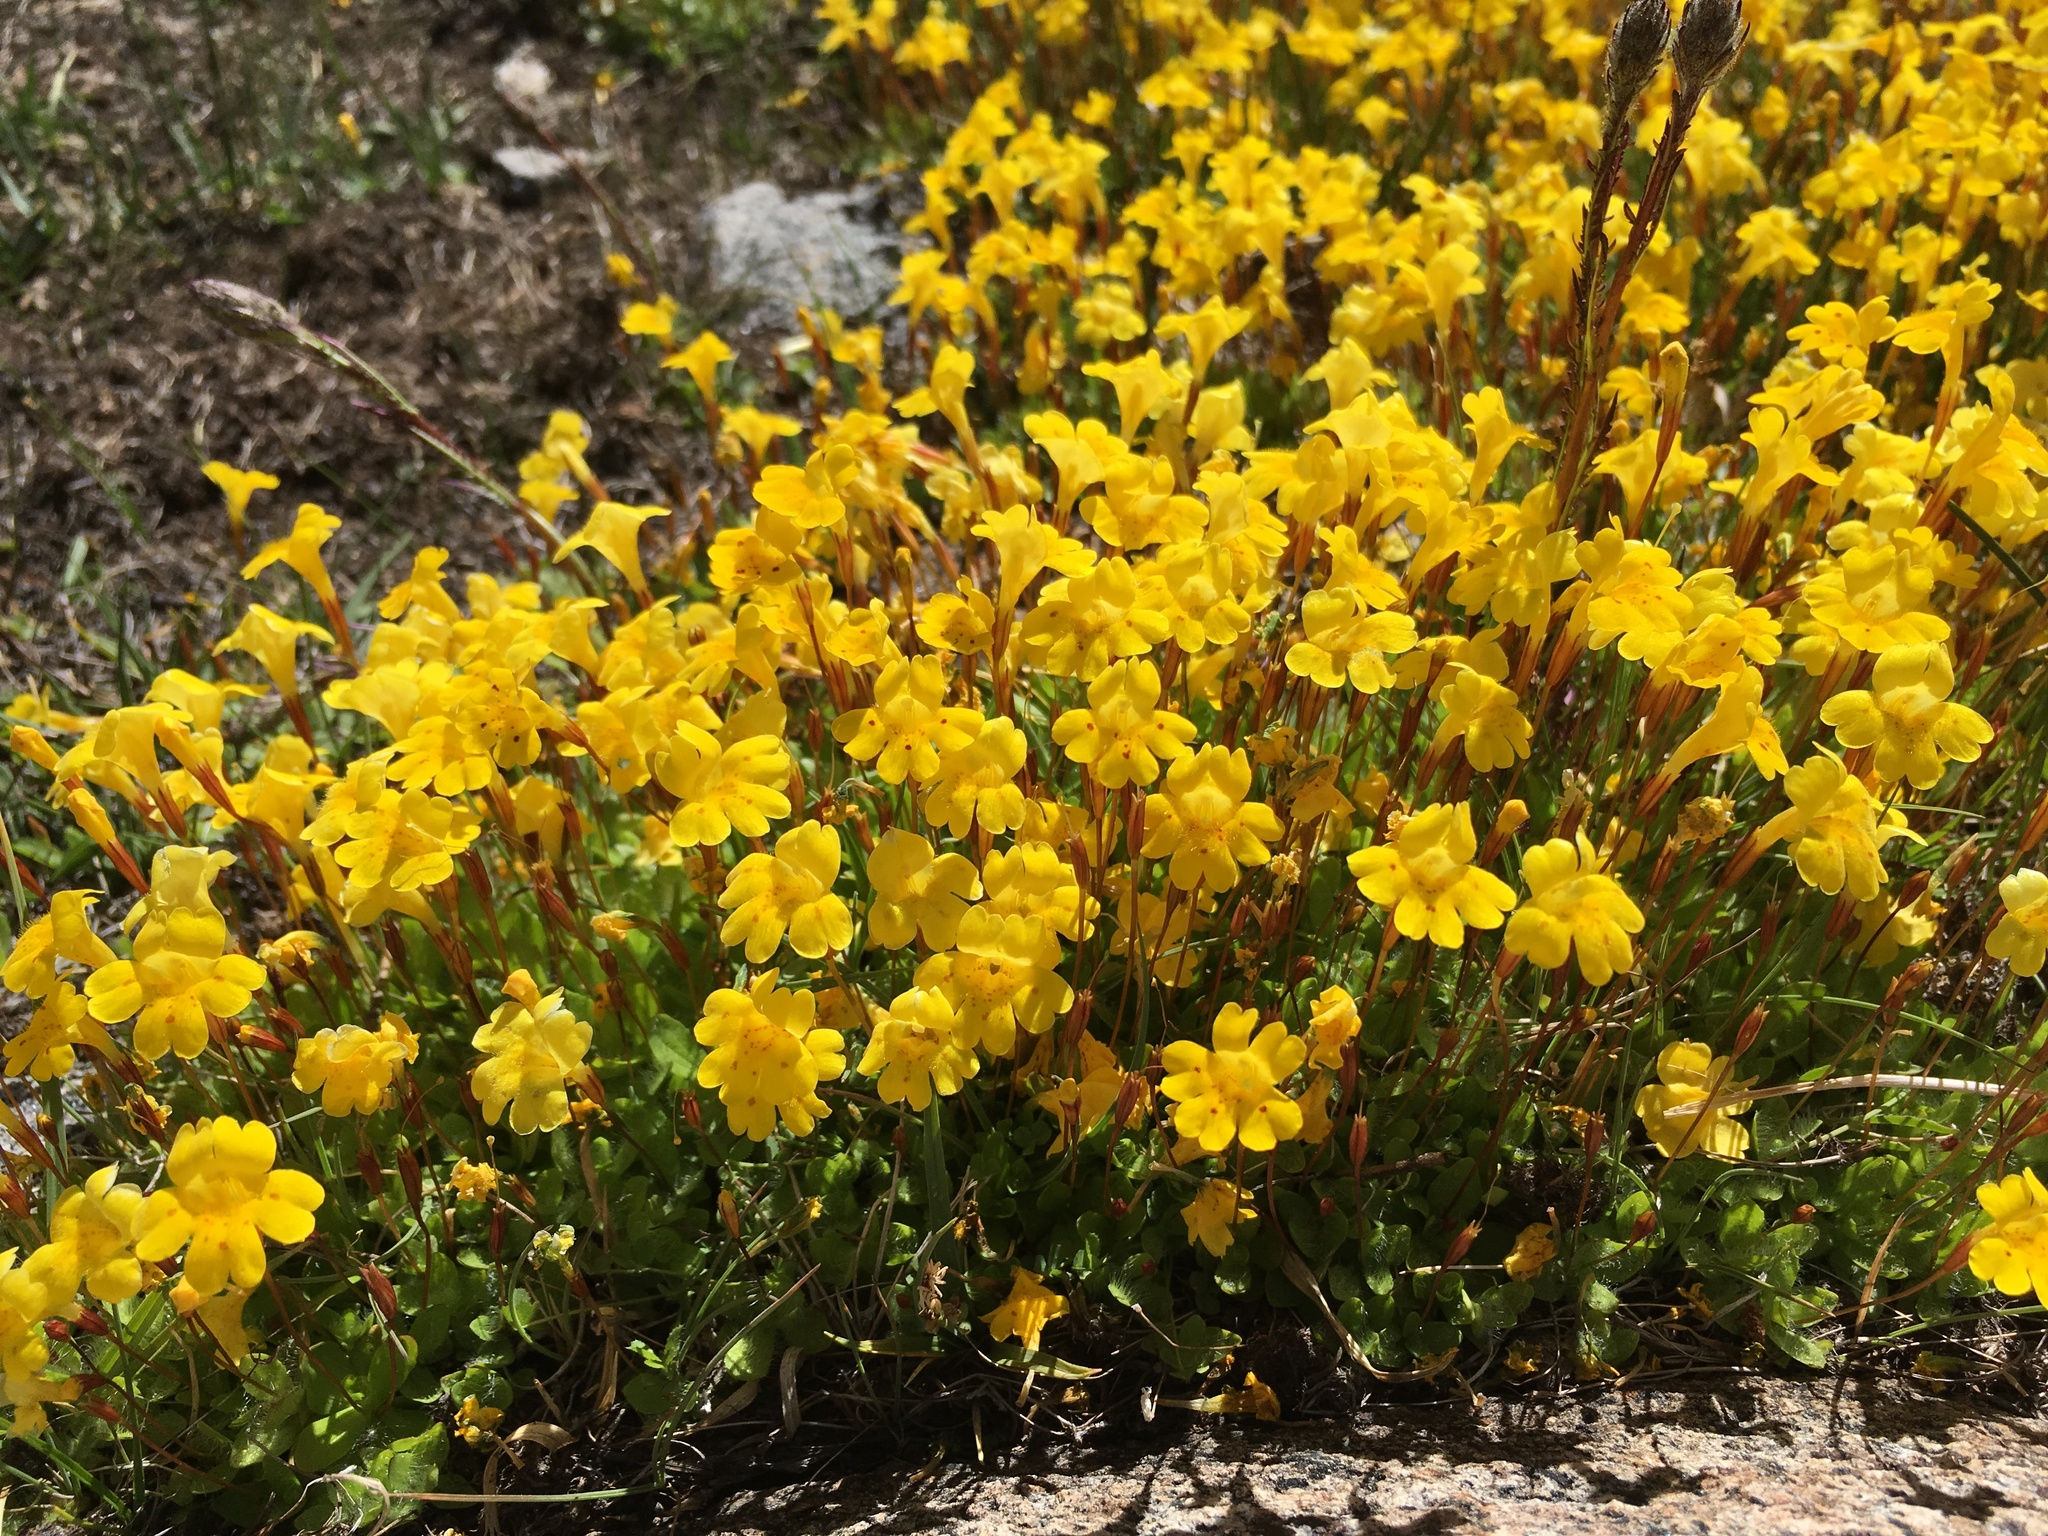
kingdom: Plantae
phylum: Tracheophyta
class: Magnoliopsida
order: Lamiales
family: Phrymaceae
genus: Erythranthe
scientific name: Erythranthe primuloides
